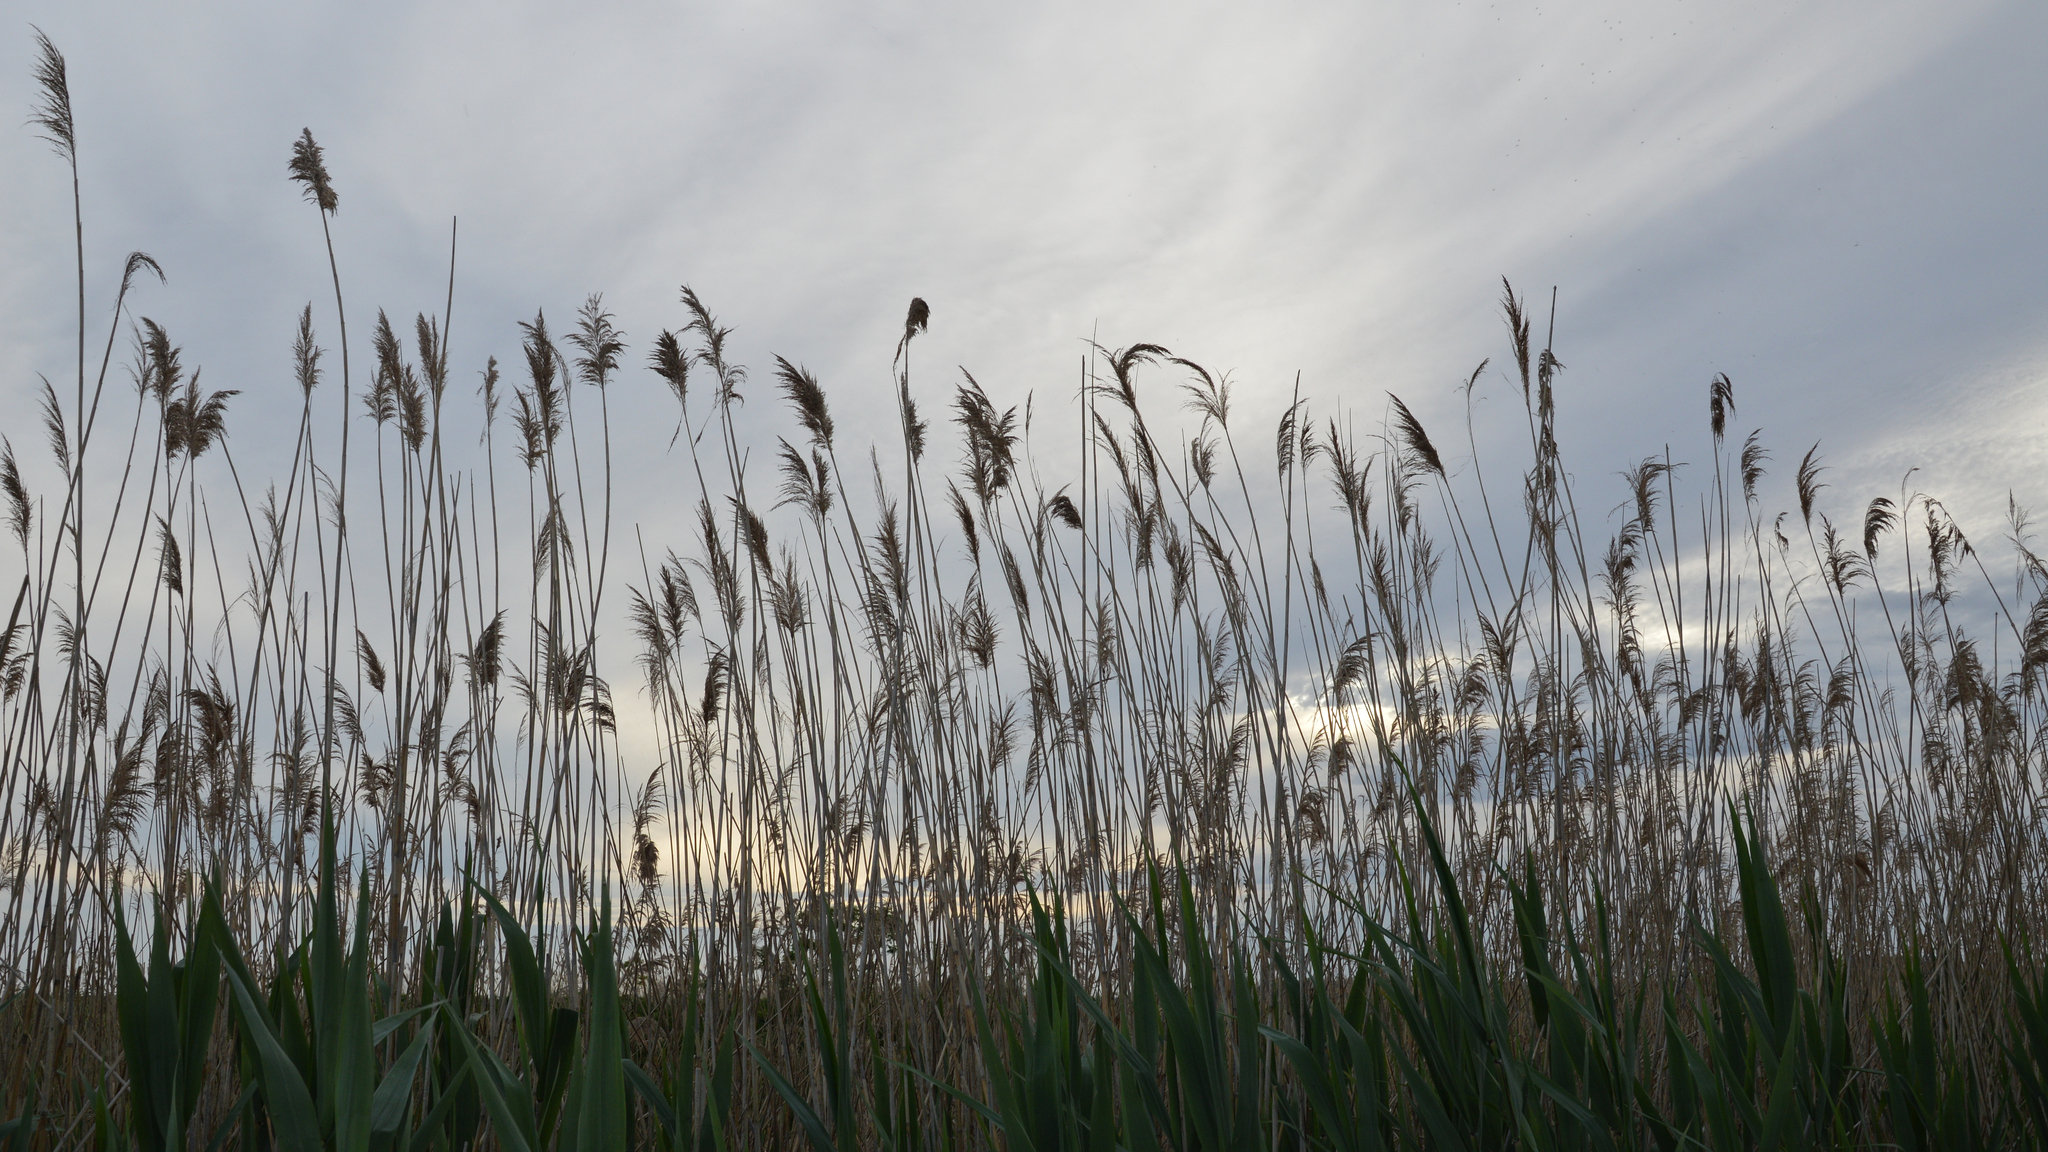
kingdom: Plantae
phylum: Tracheophyta
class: Liliopsida
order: Poales
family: Poaceae
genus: Phragmites
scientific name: Phragmites australis
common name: Common reed
